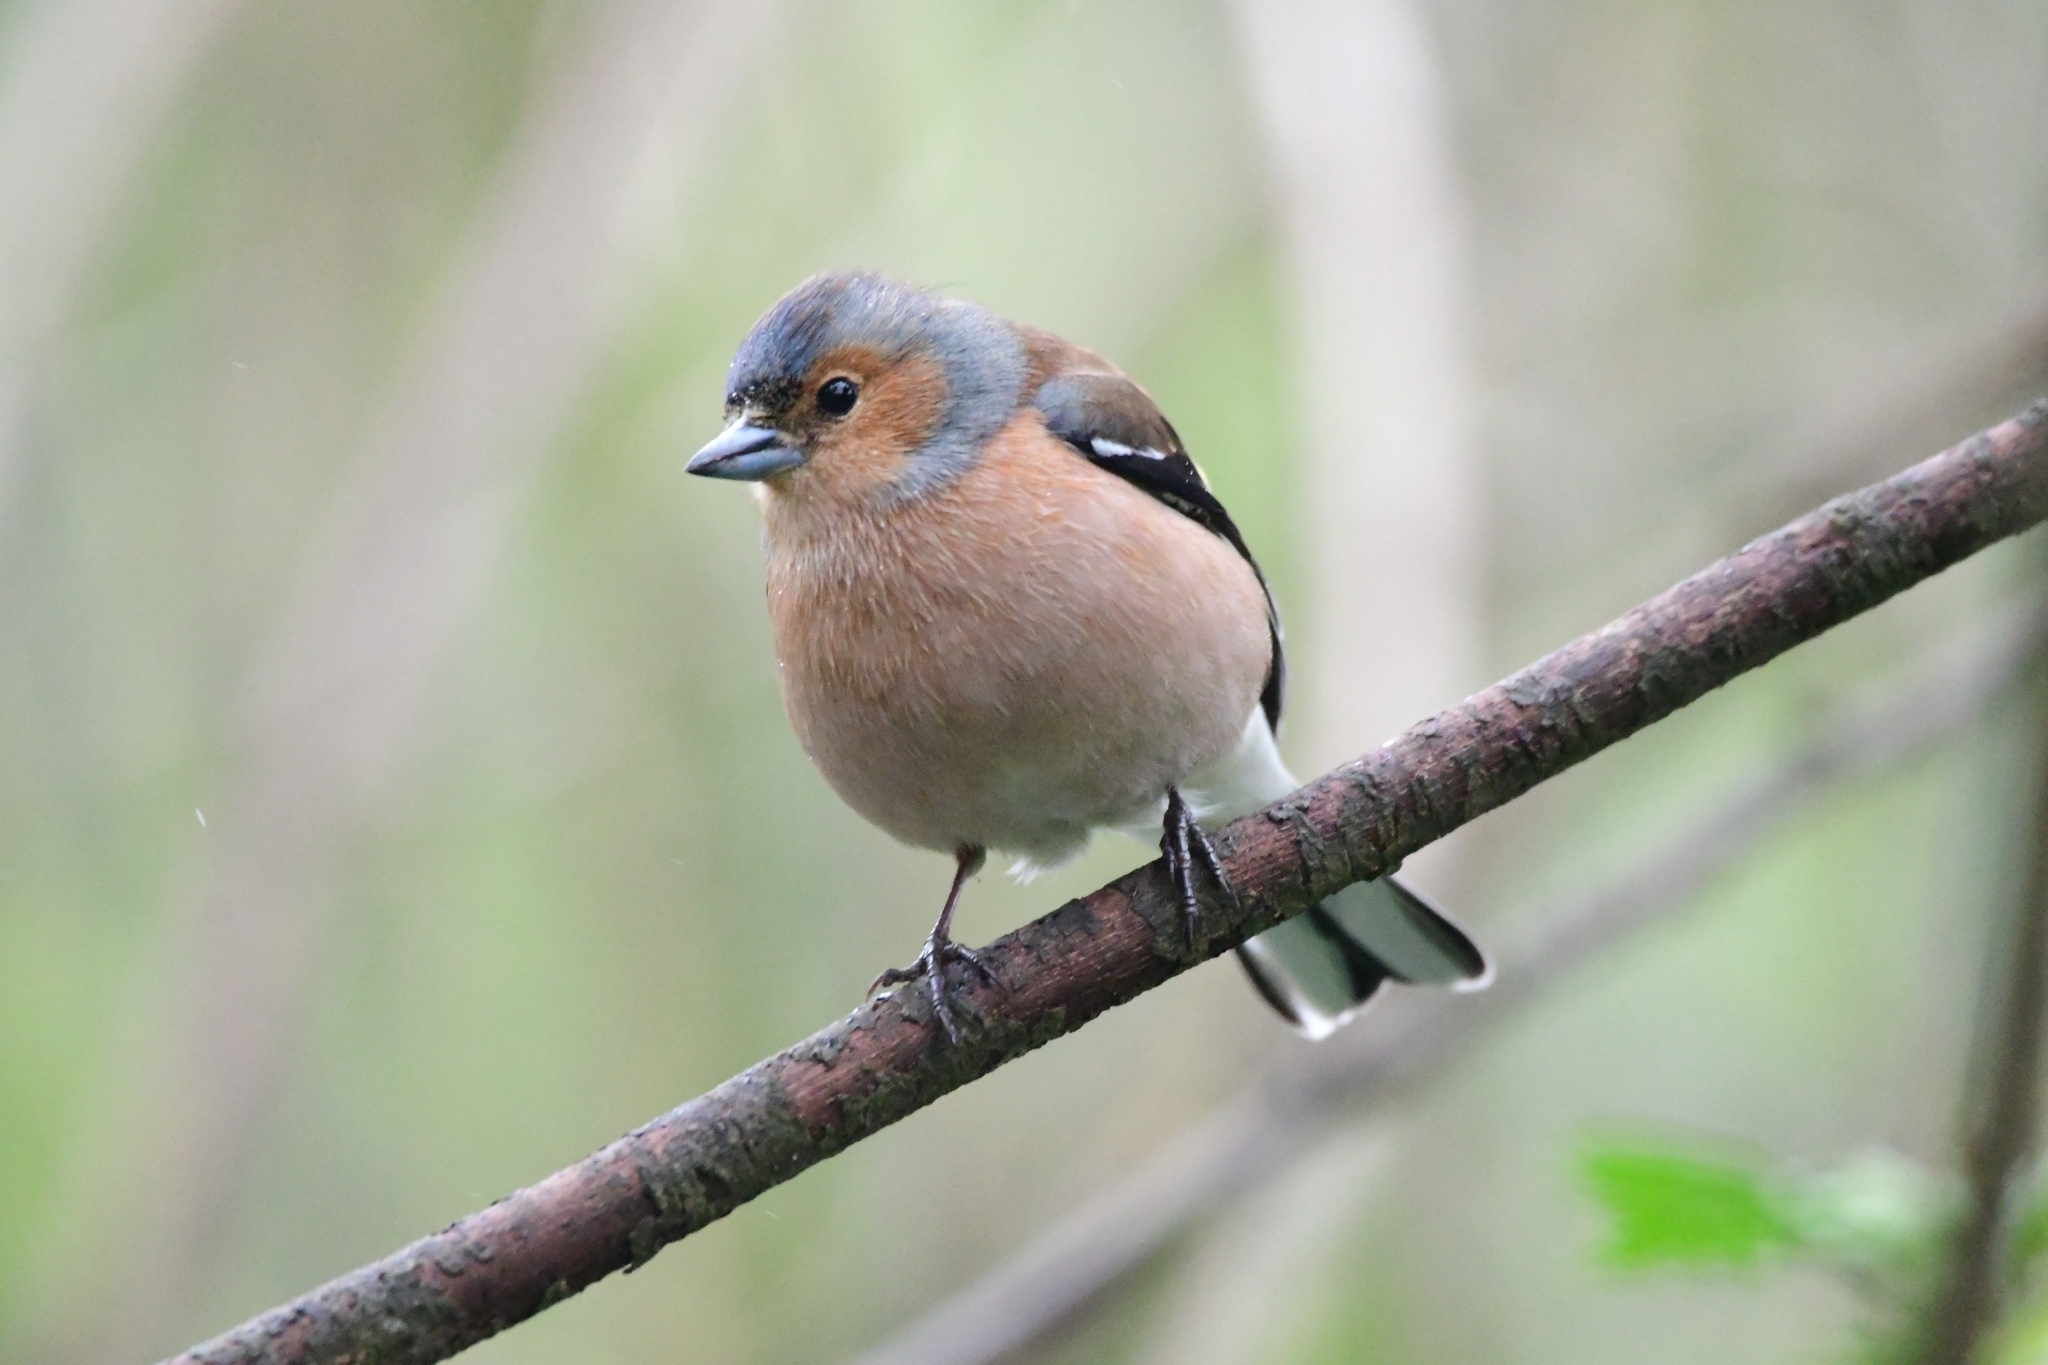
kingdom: Animalia
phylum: Chordata
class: Aves
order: Passeriformes
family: Fringillidae
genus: Fringilla
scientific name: Fringilla coelebs
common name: Common chaffinch
